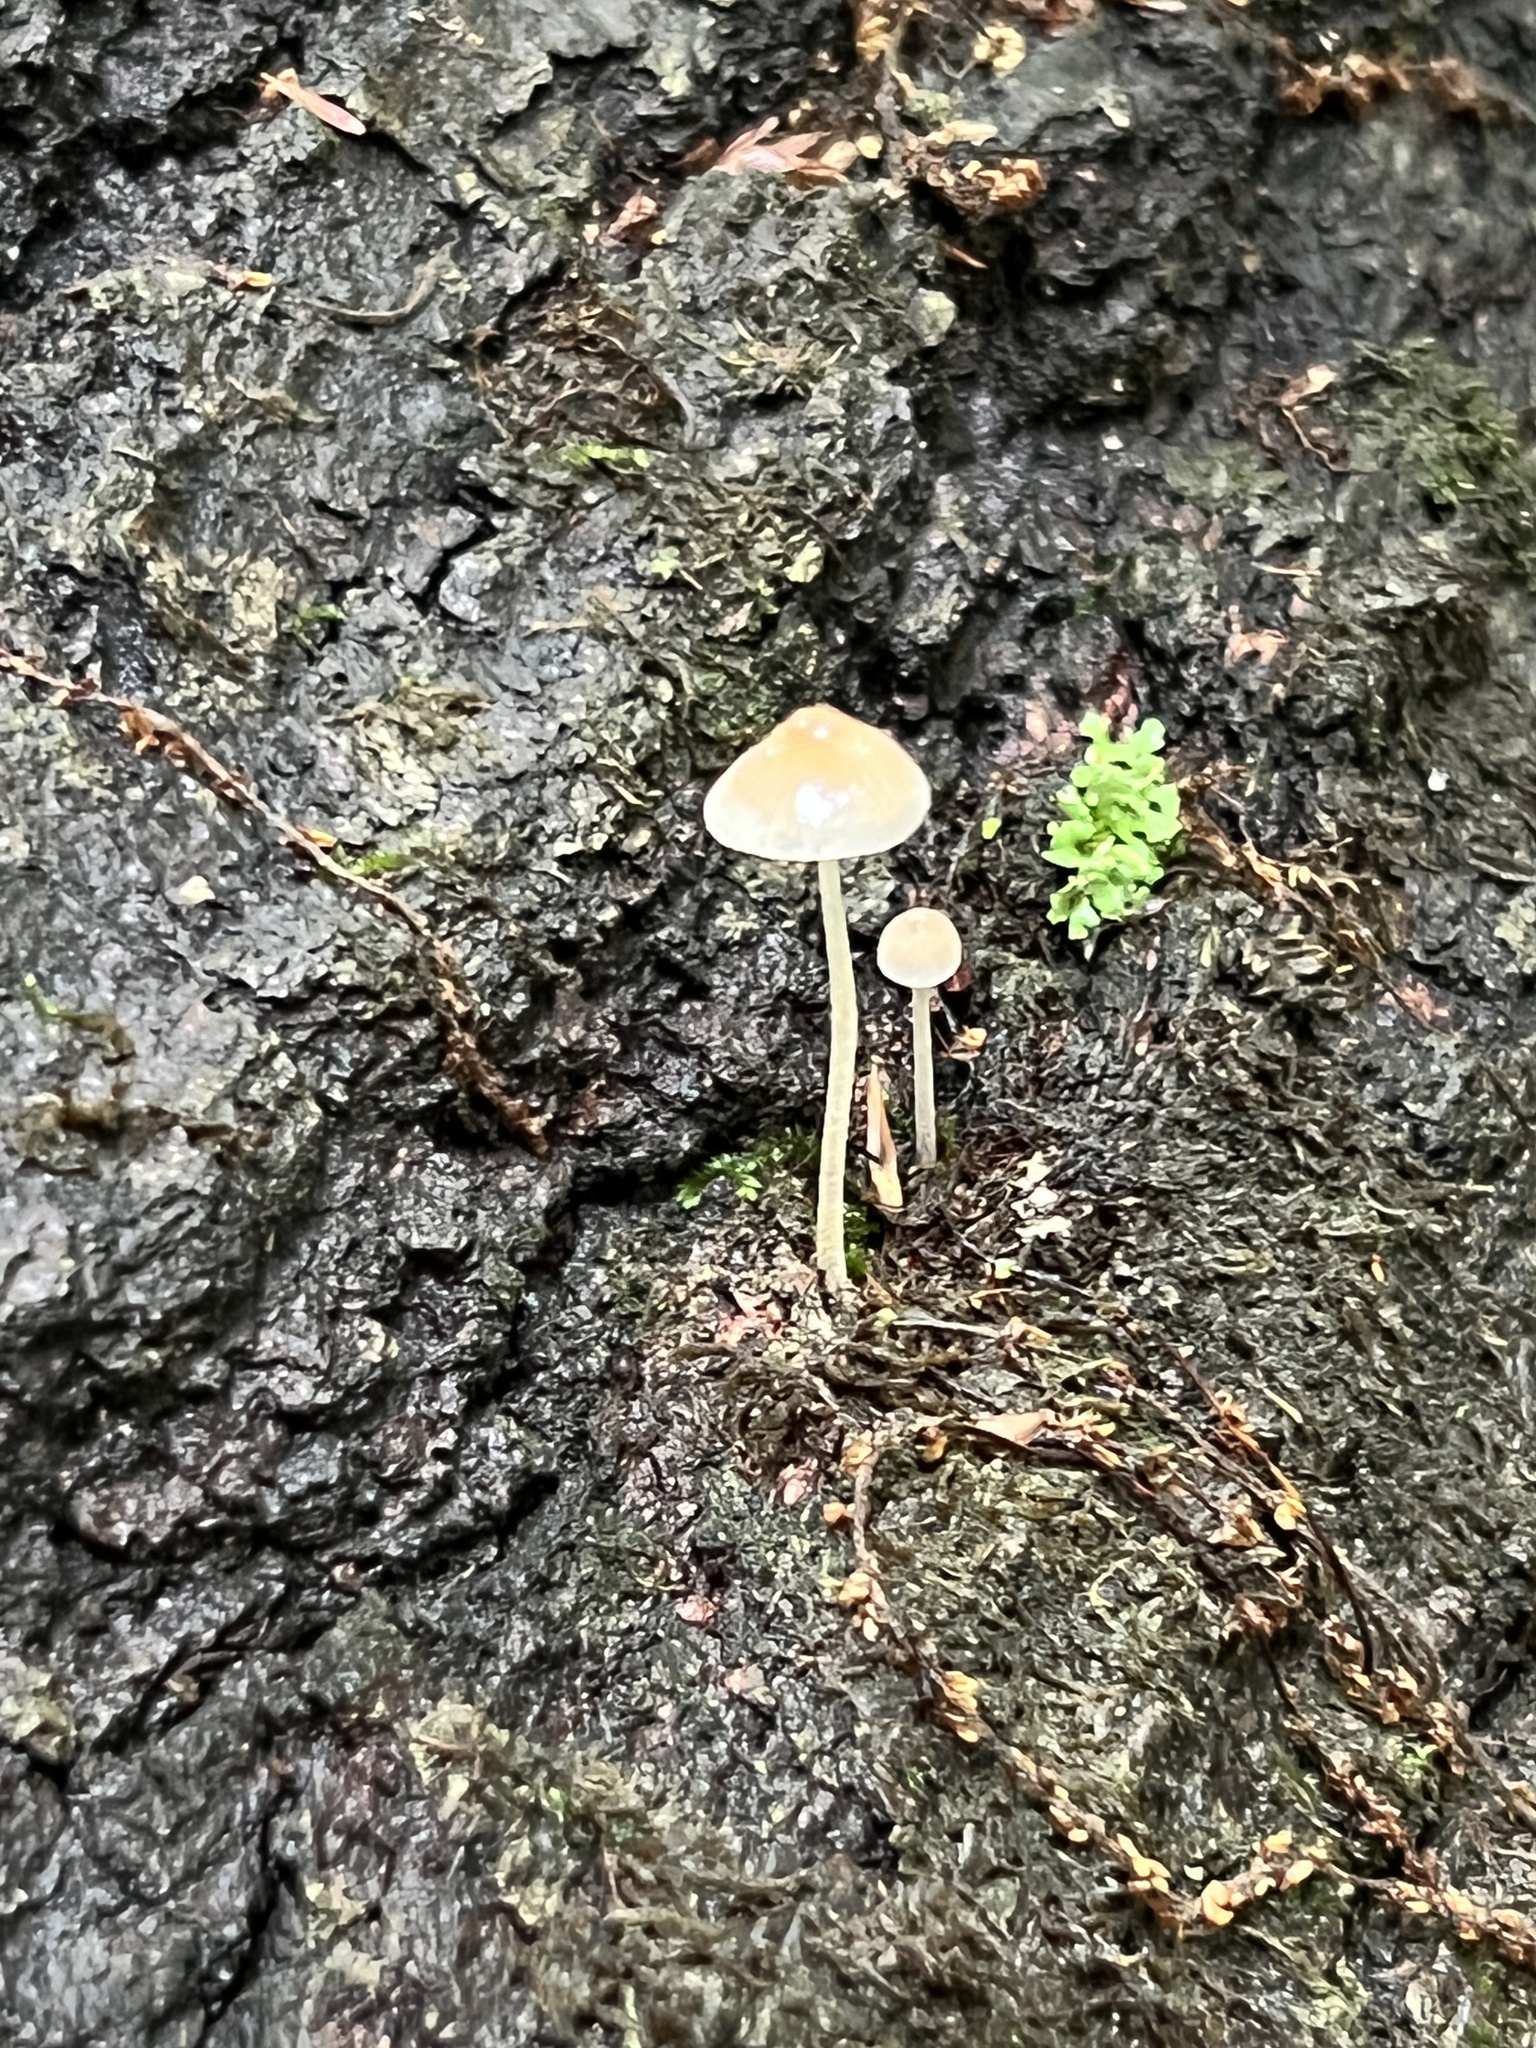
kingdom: Fungi
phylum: Basidiomycota
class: Agaricomycetes
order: Agaricales
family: Mycenaceae
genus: Mycena
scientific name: Mycena subcaerulea
